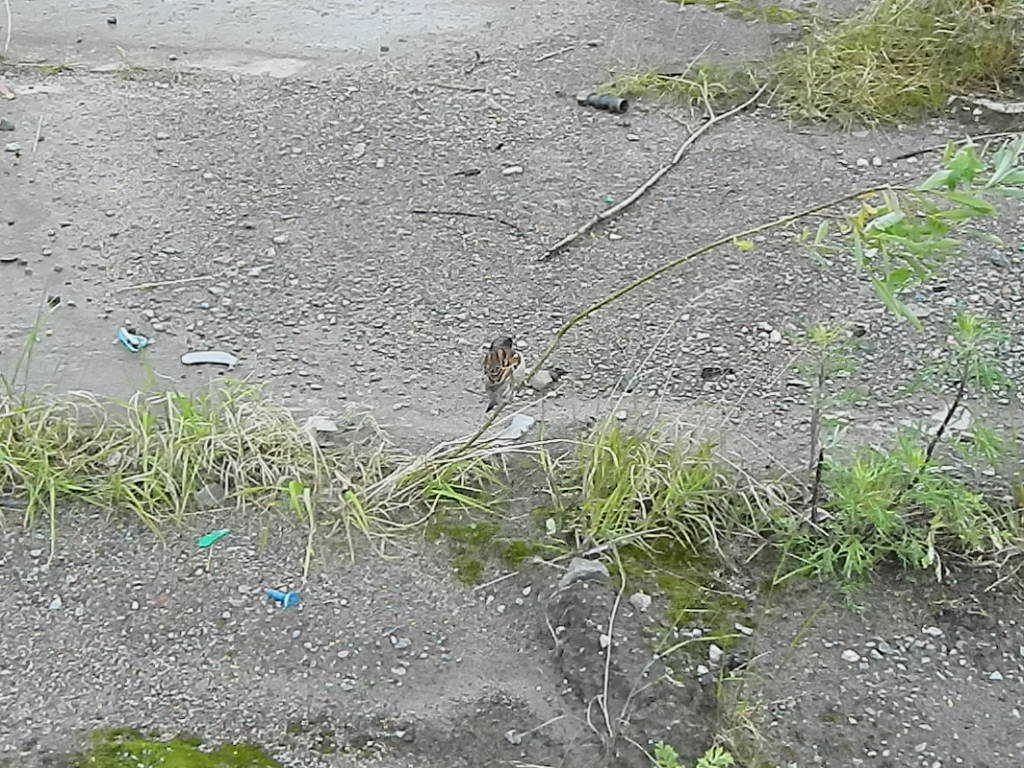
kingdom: Animalia
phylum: Chordata
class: Aves
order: Passeriformes
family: Passeridae
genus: Passer
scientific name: Passer domesticus
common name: House sparrow
